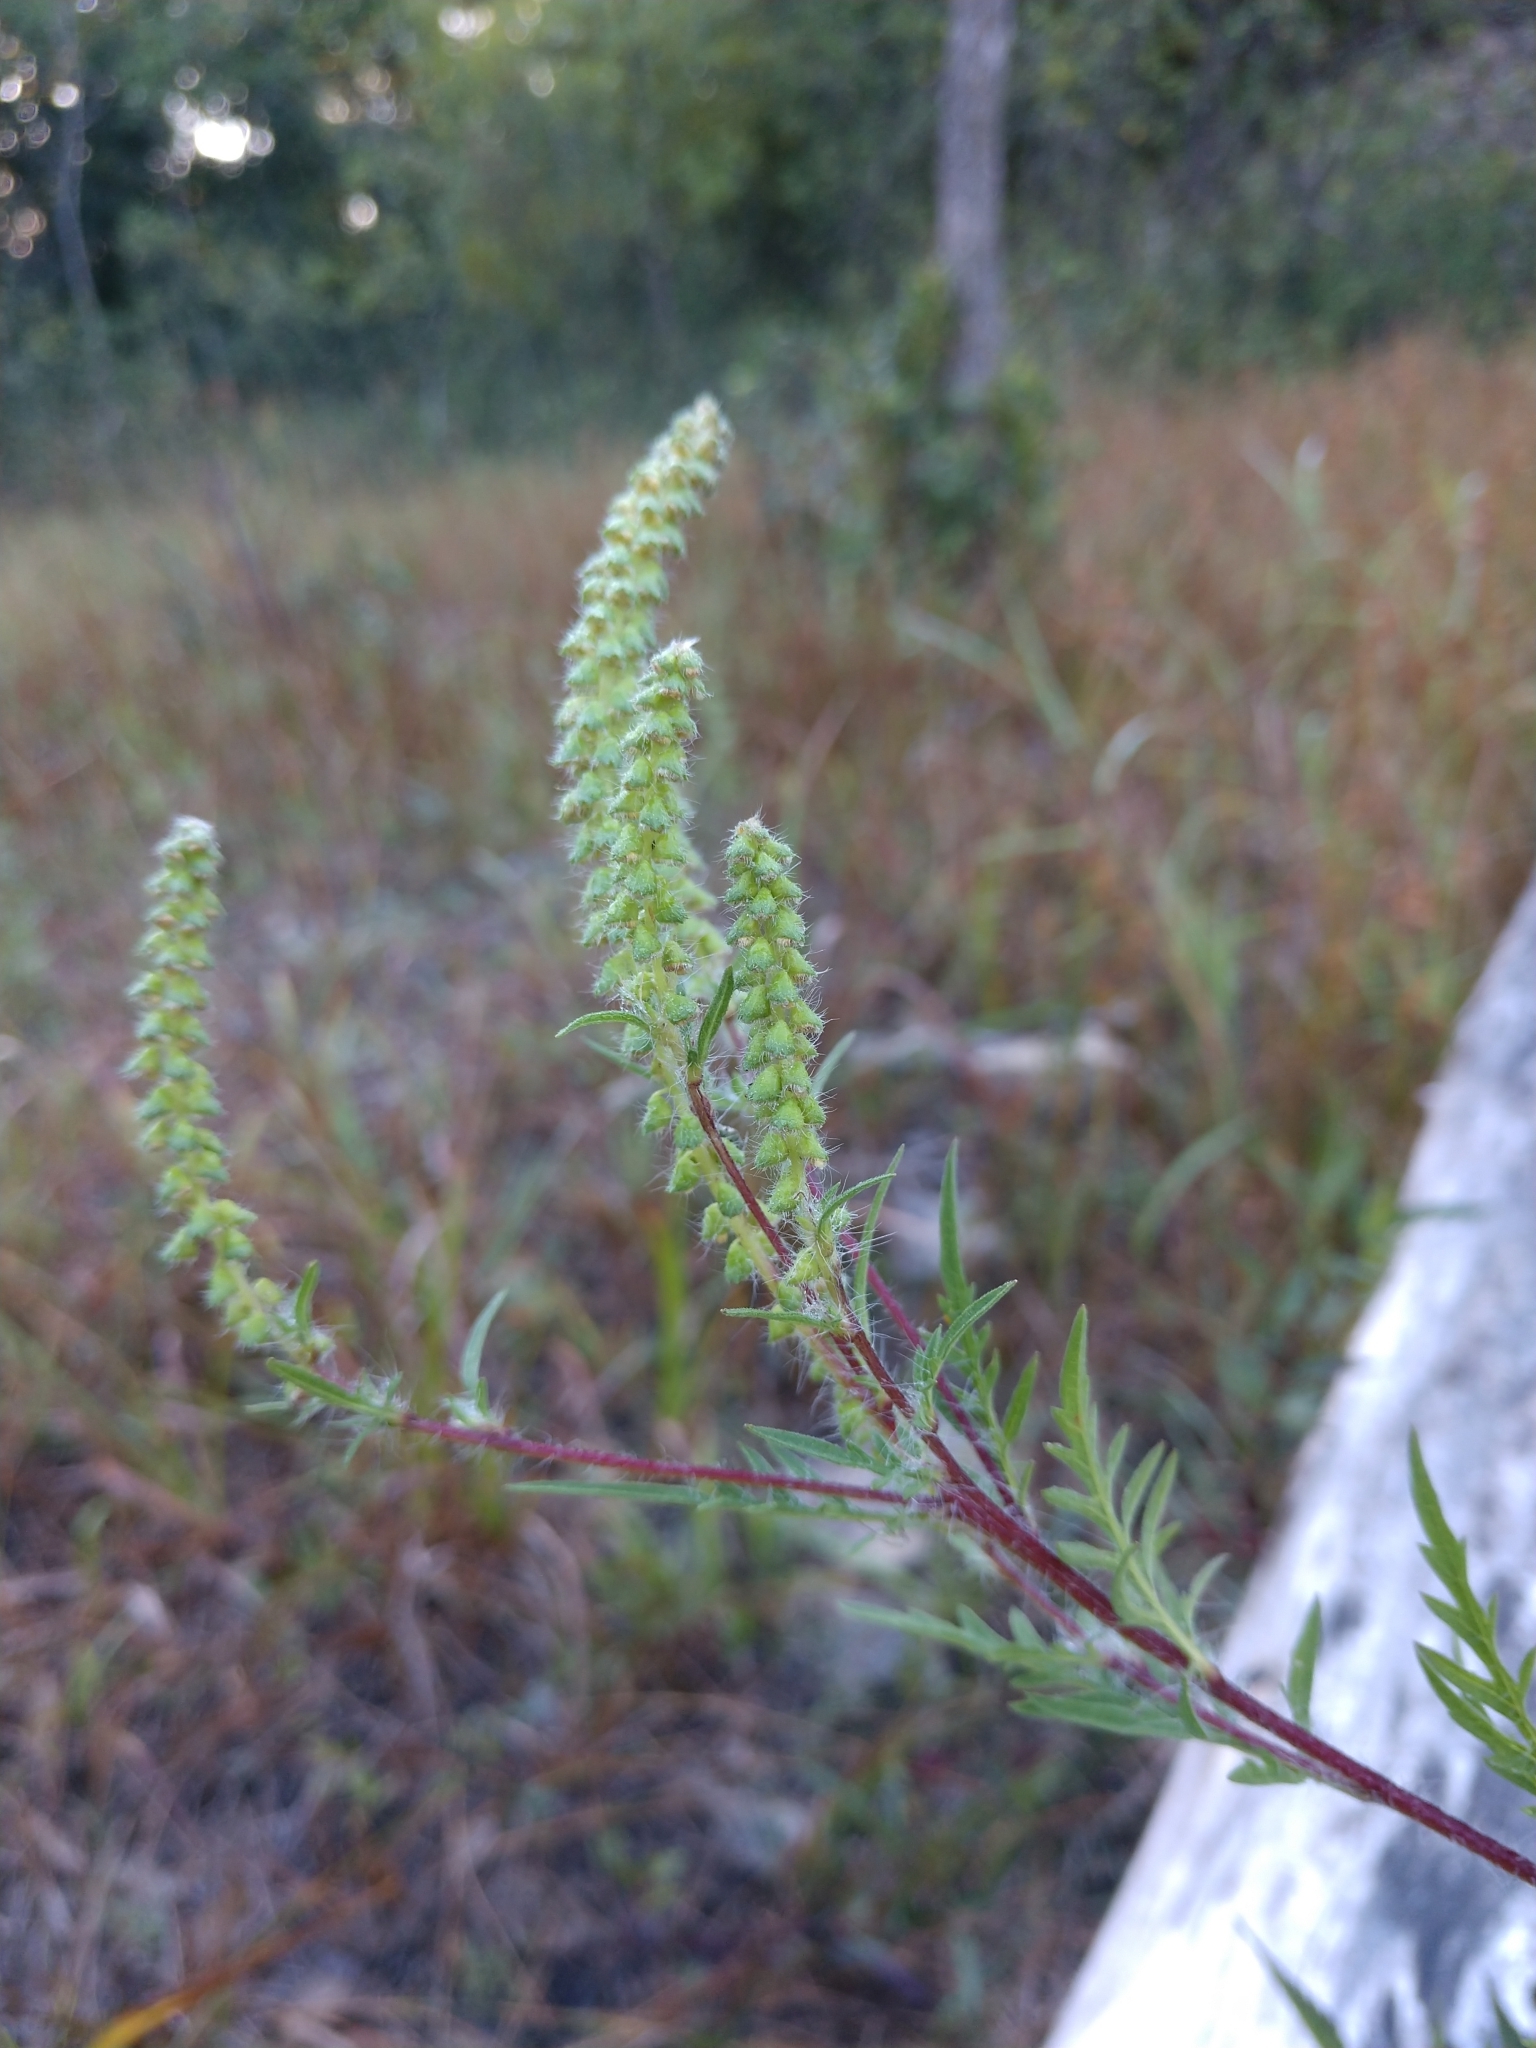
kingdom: Plantae
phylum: Tracheophyta
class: Magnoliopsida
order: Asterales
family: Asteraceae
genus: Ambrosia
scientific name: Ambrosia artemisiifolia
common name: Annual ragweed
